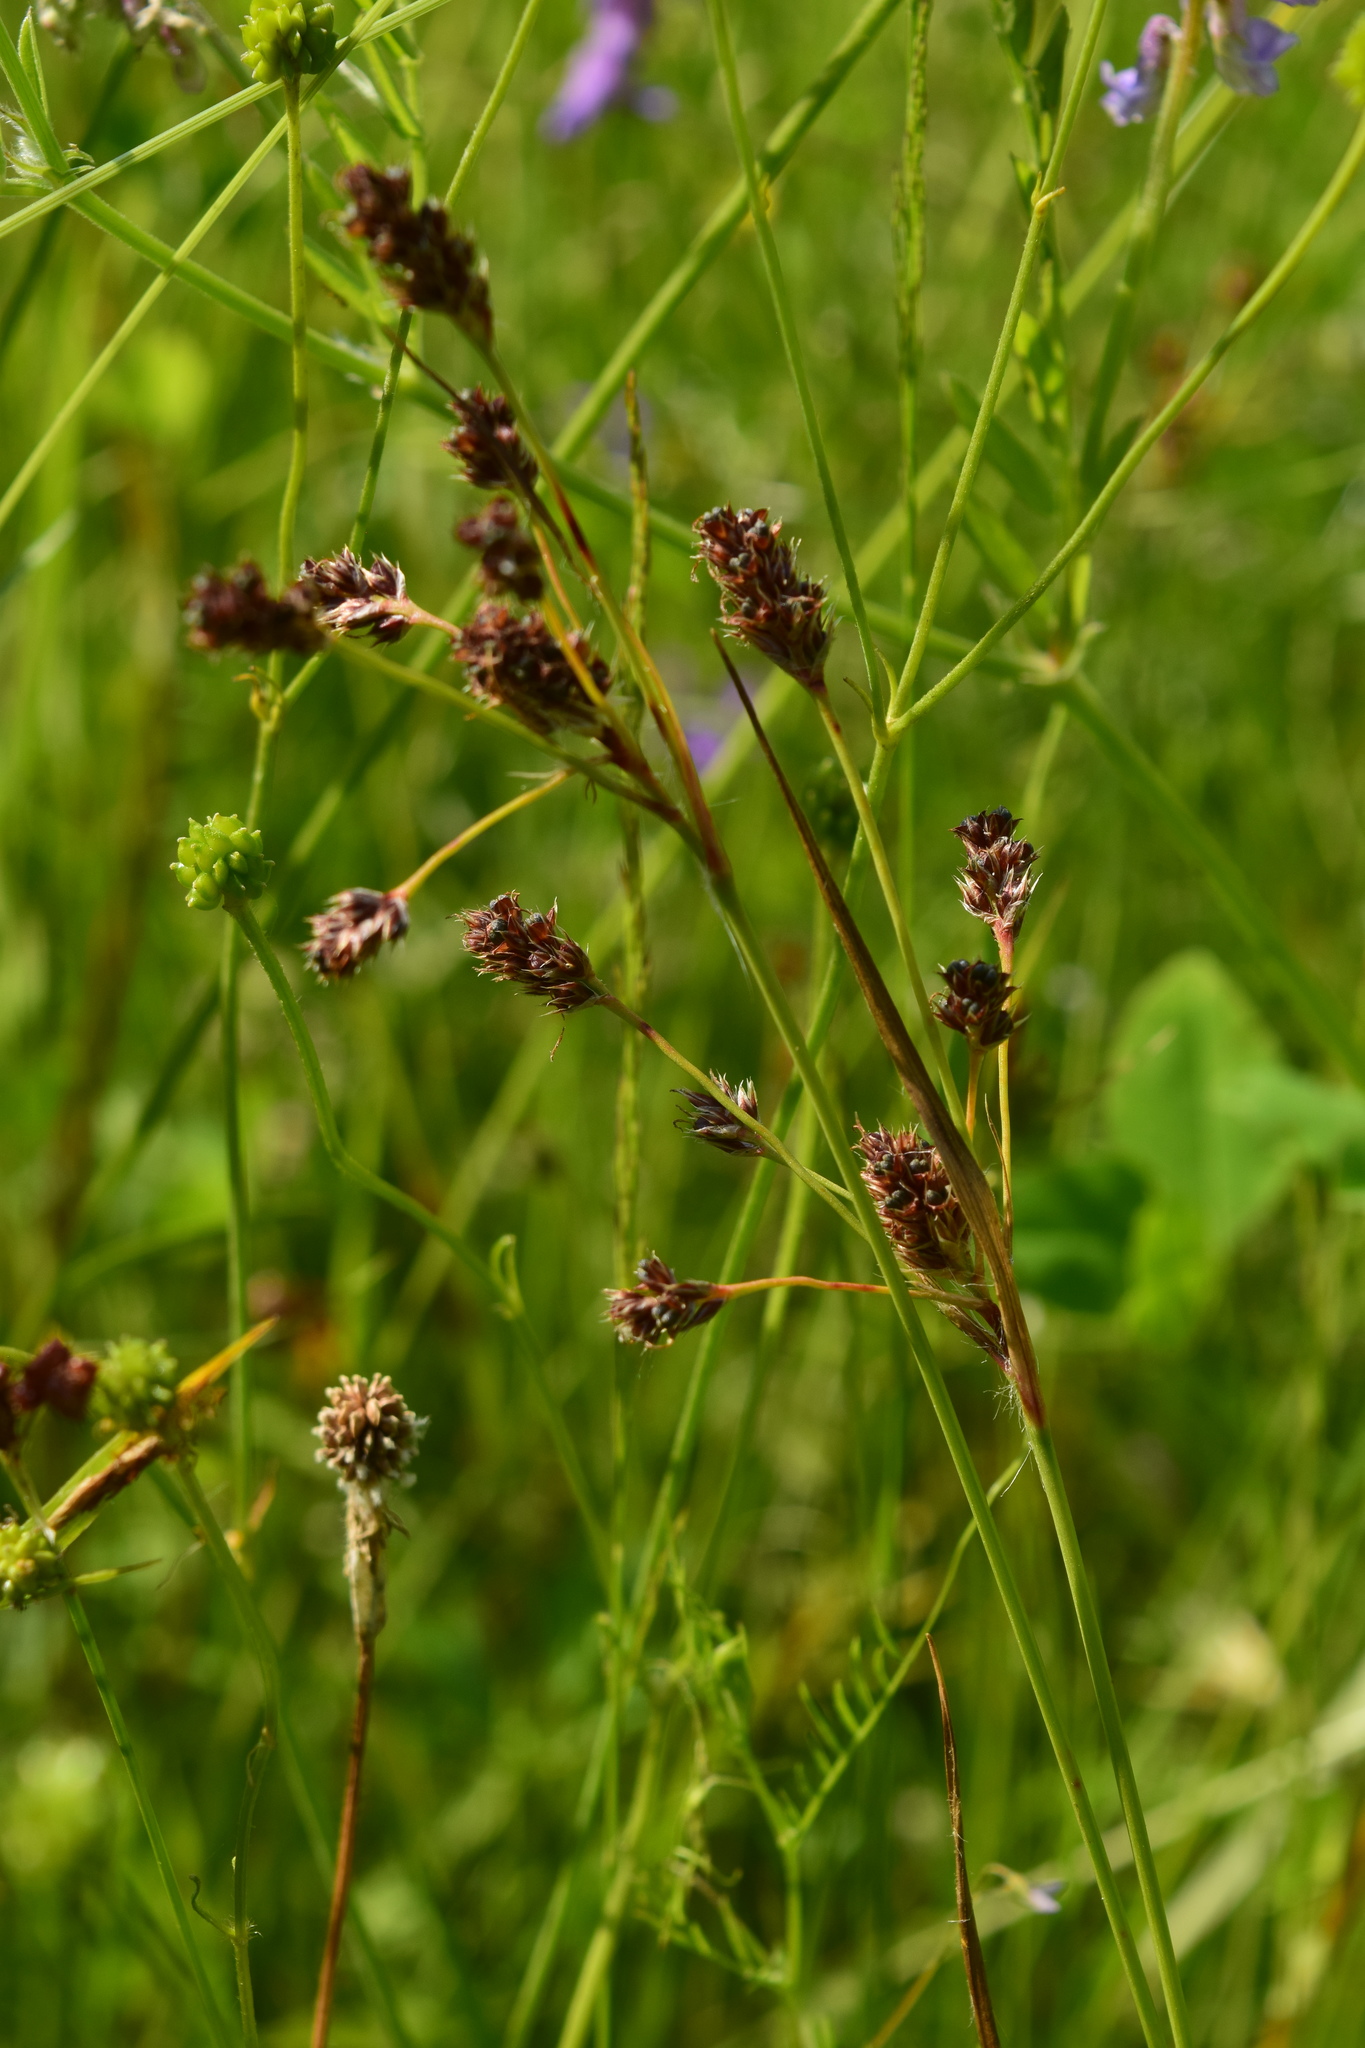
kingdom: Plantae
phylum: Tracheophyta
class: Liliopsida
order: Poales
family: Juncaceae
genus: Luzula
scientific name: Luzula multiflora
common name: Heath wood-rush
